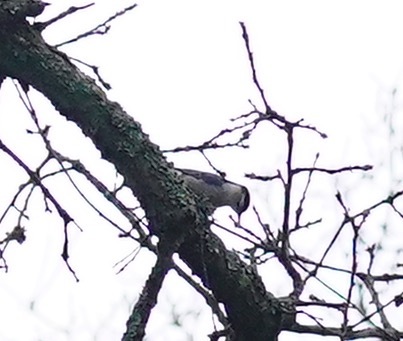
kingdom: Animalia
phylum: Chordata
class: Aves
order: Passeriformes
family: Sittidae
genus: Sitta
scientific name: Sitta carolinensis
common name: White-breasted nuthatch
